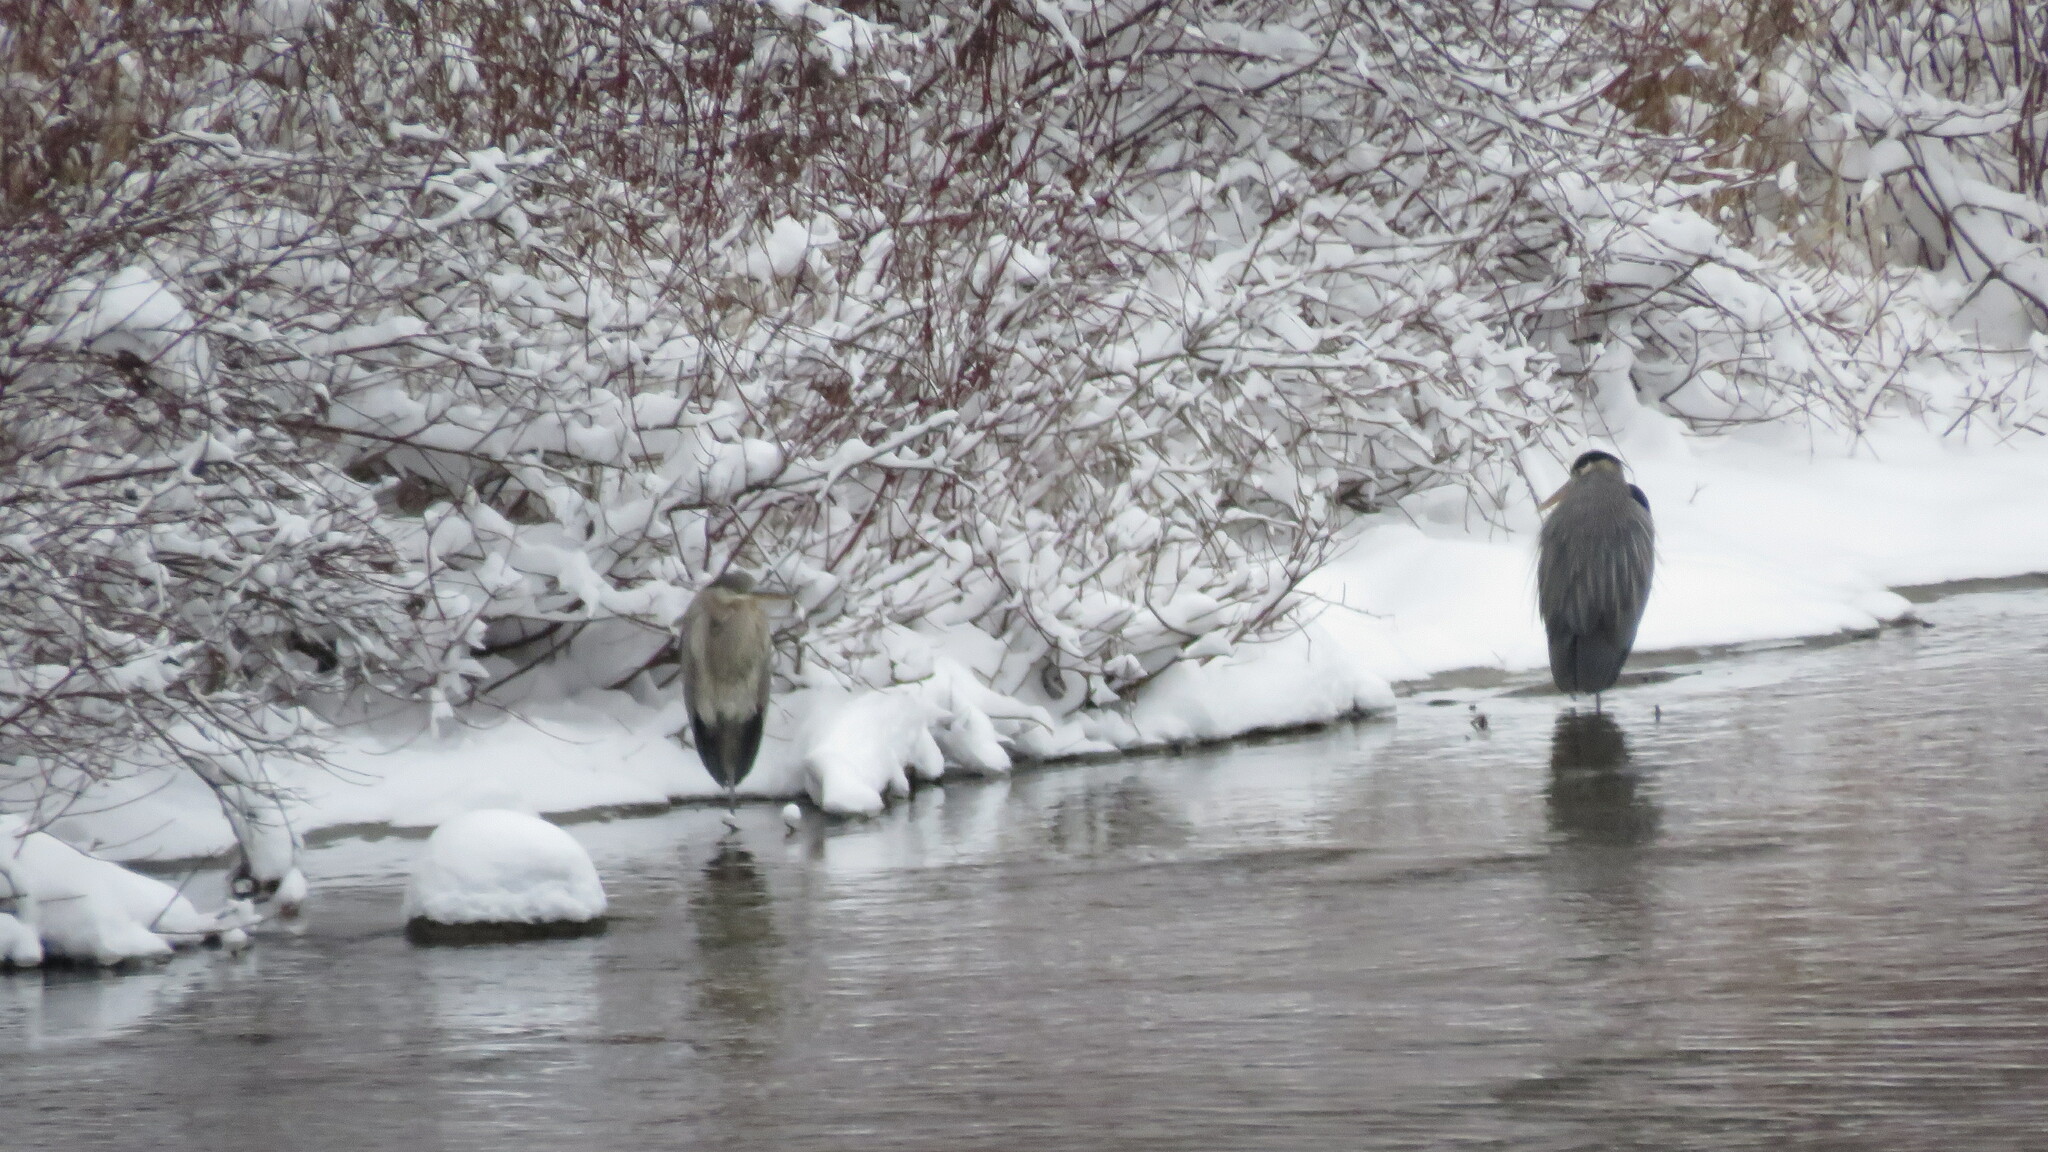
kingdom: Animalia
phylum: Chordata
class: Aves
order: Pelecaniformes
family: Ardeidae
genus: Ardea
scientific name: Ardea herodias
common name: Great blue heron
